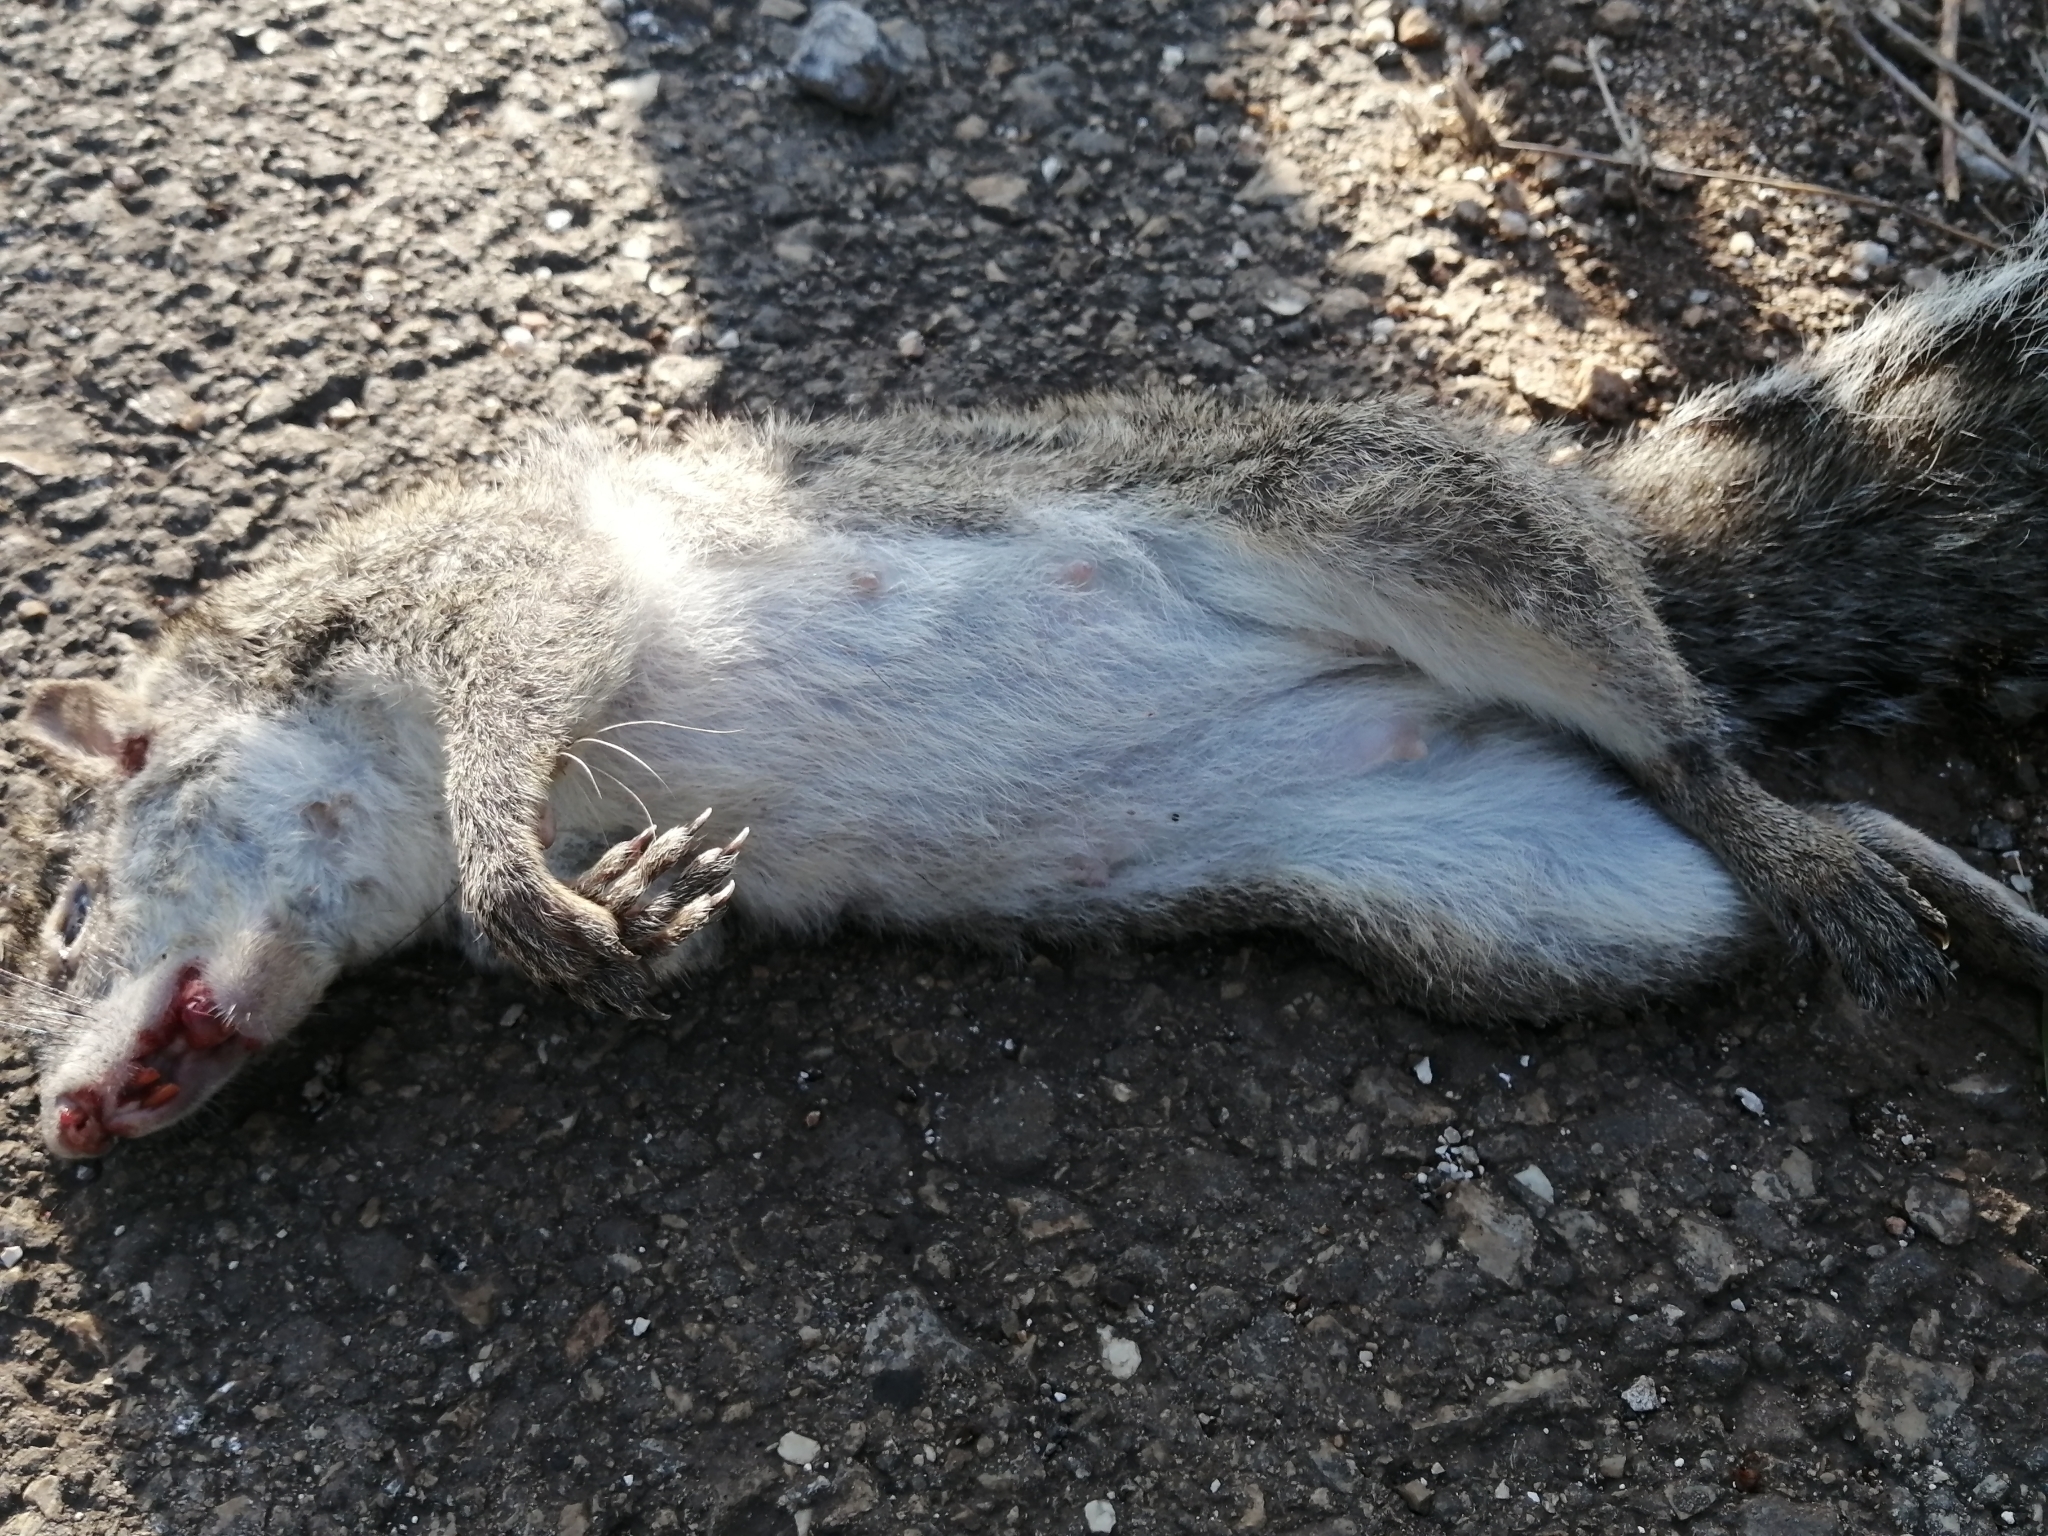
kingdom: Animalia
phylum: Chordata
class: Mammalia
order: Rodentia
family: Sciuridae
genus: Sciurus
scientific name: Sciurus yucatanensis
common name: Yucatan squirrel
